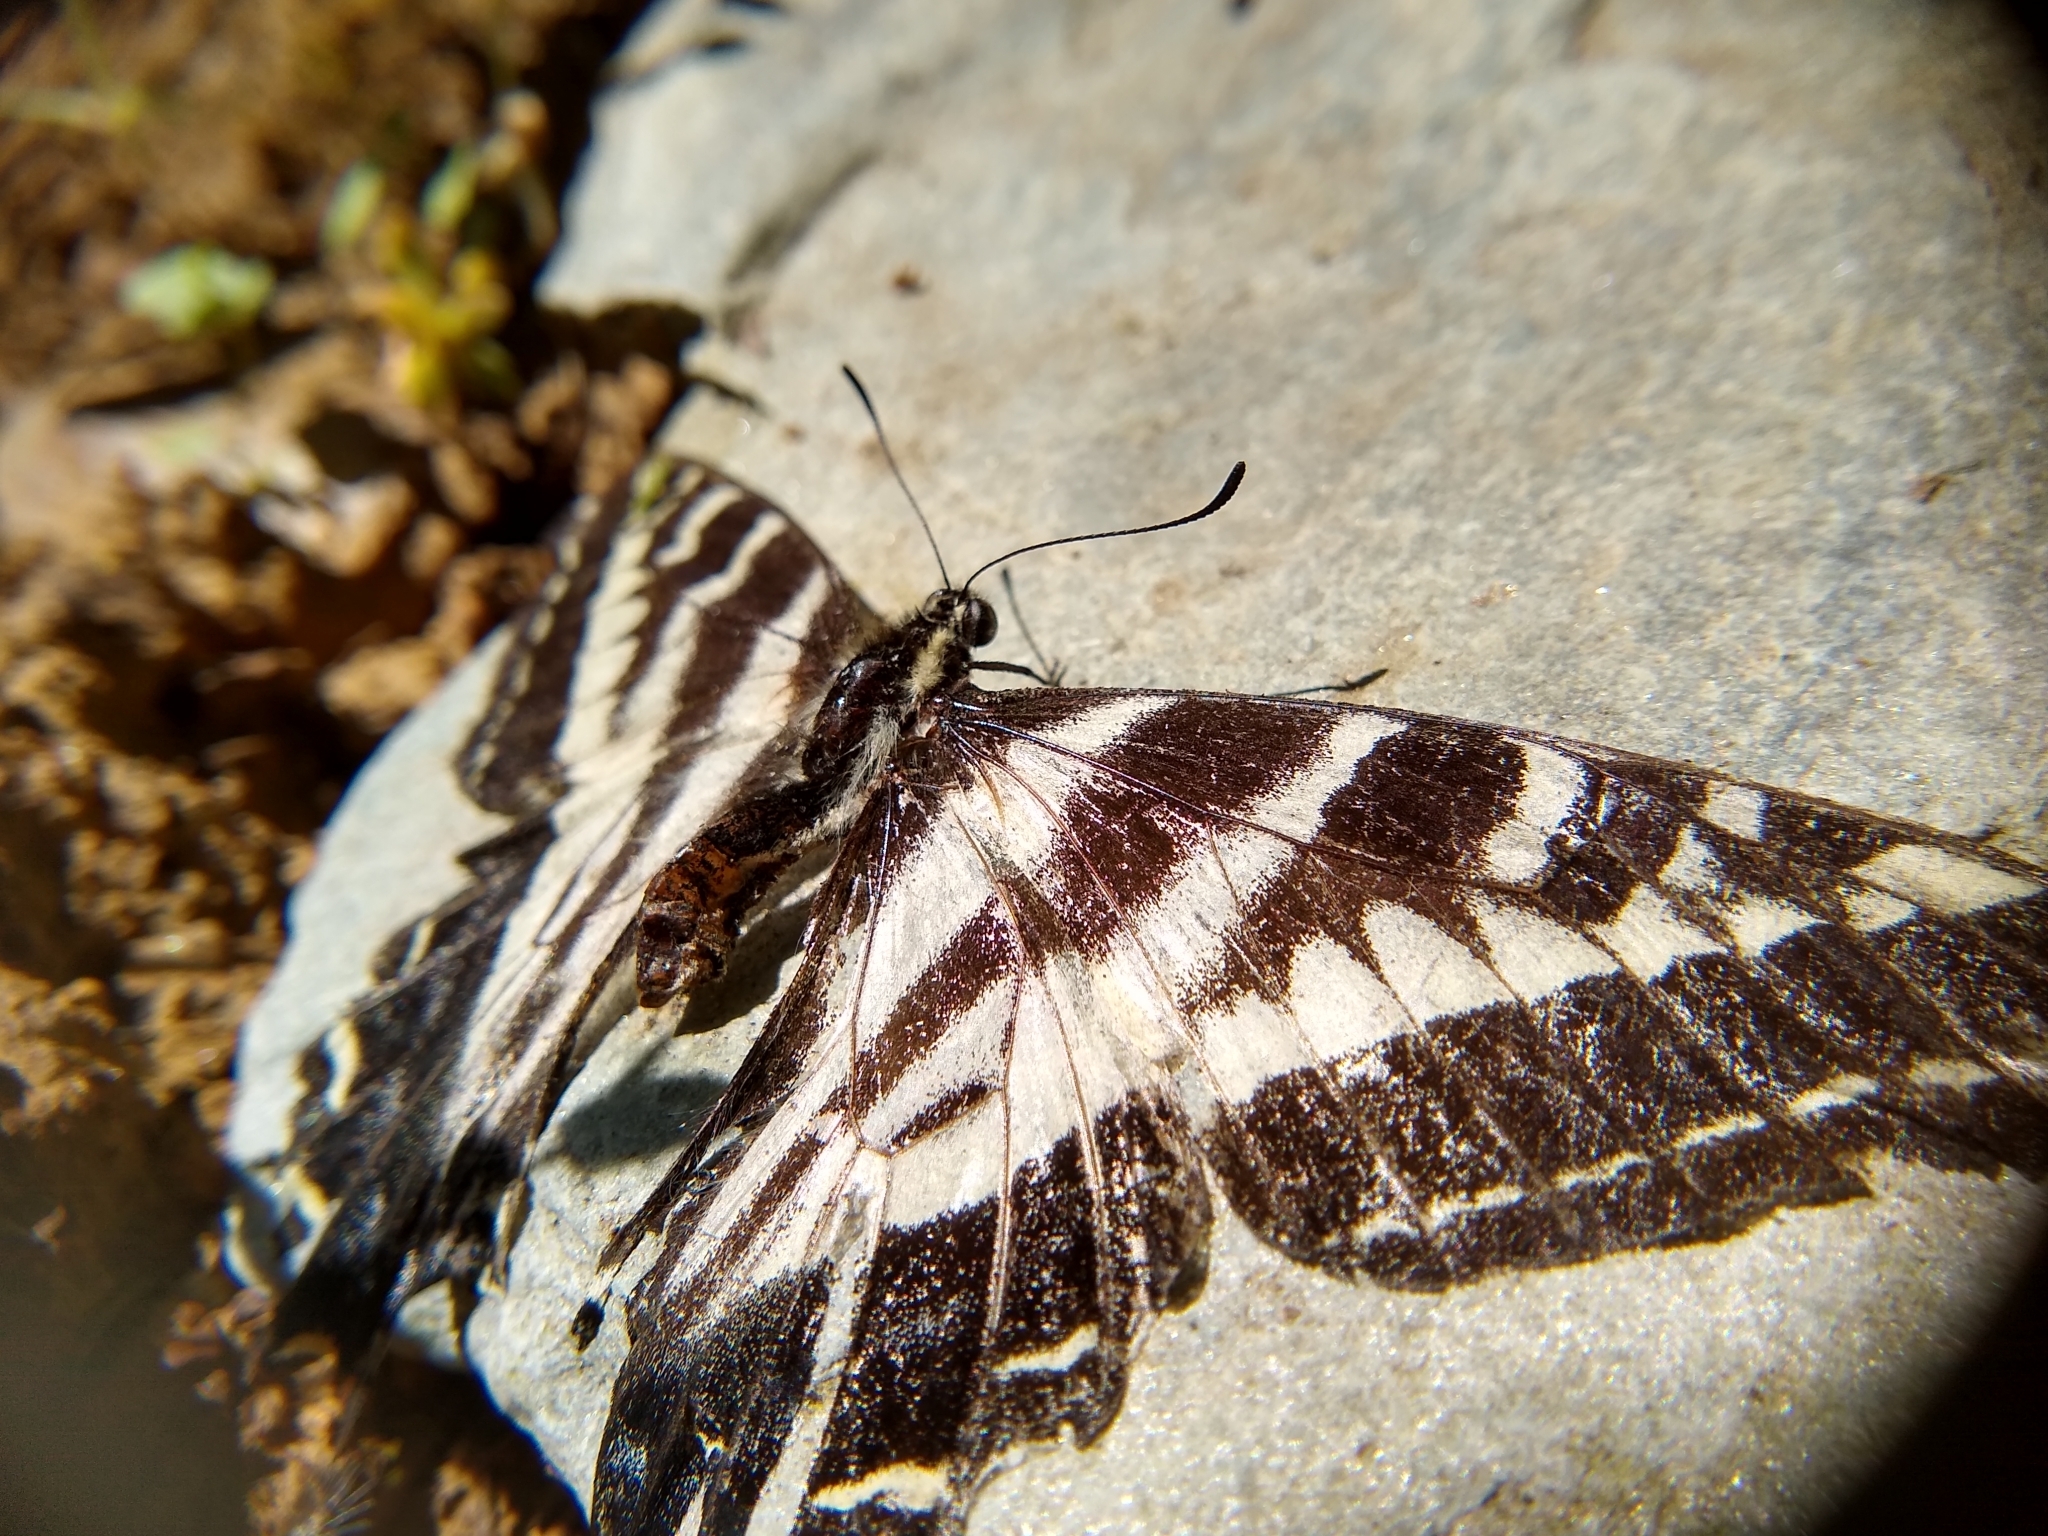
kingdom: Animalia
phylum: Arthropoda
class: Insecta
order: Lepidoptera
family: Papilionidae
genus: Papilio
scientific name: Papilio eurymedon
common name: Pale tiger swallowtail
